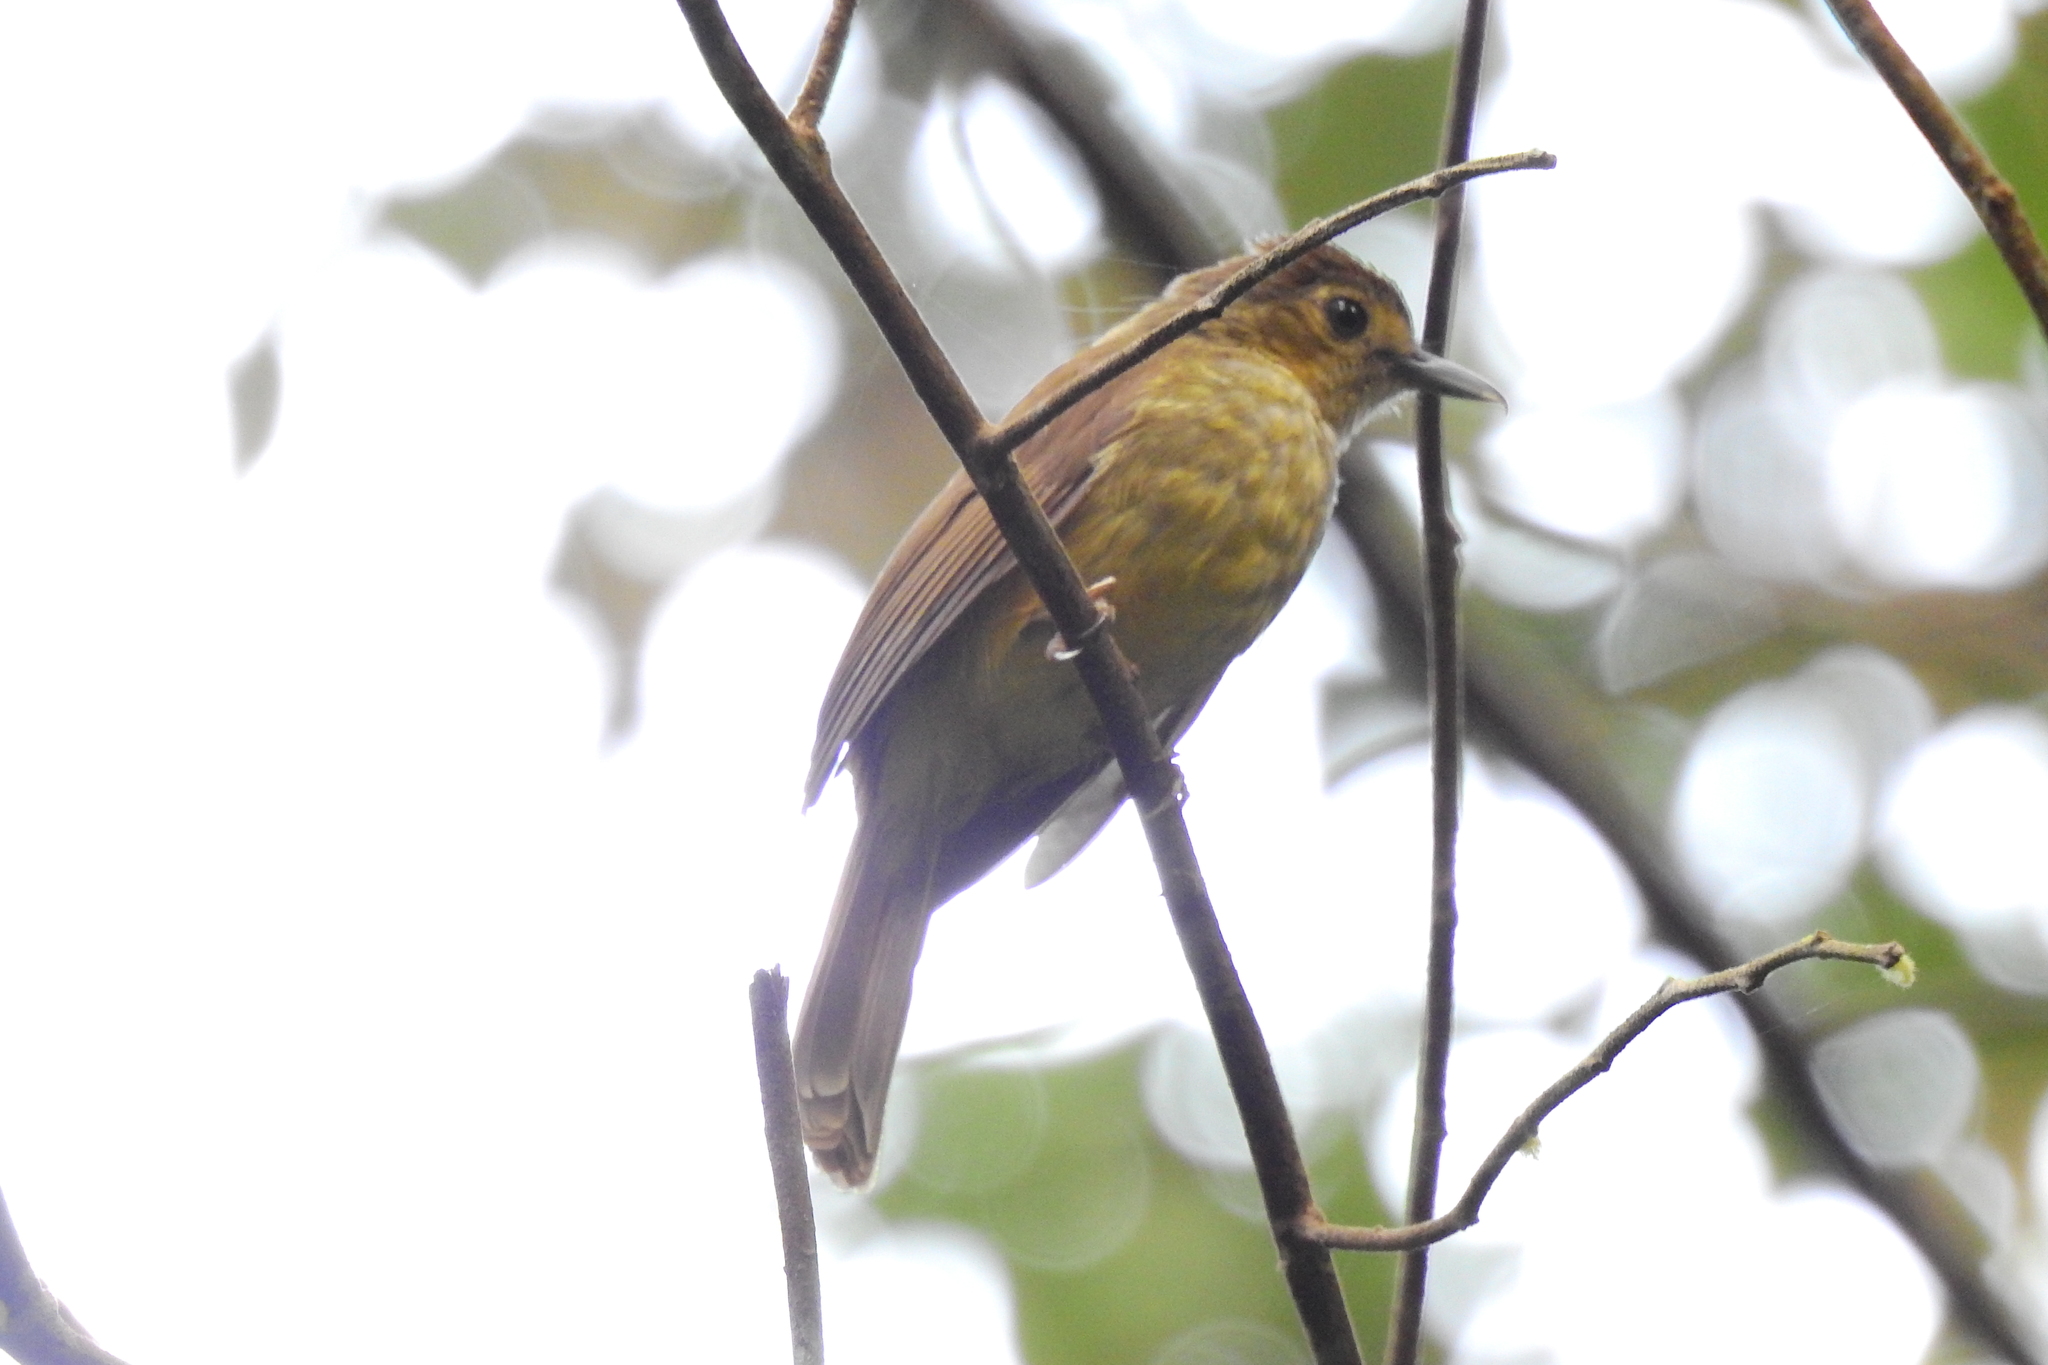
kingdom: Animalia
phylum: Chordata
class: Aves
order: Passeriformes
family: Pycnonotidae
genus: Tricholestes
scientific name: Tricholestes criniger
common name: Hairy-backed bulbul
